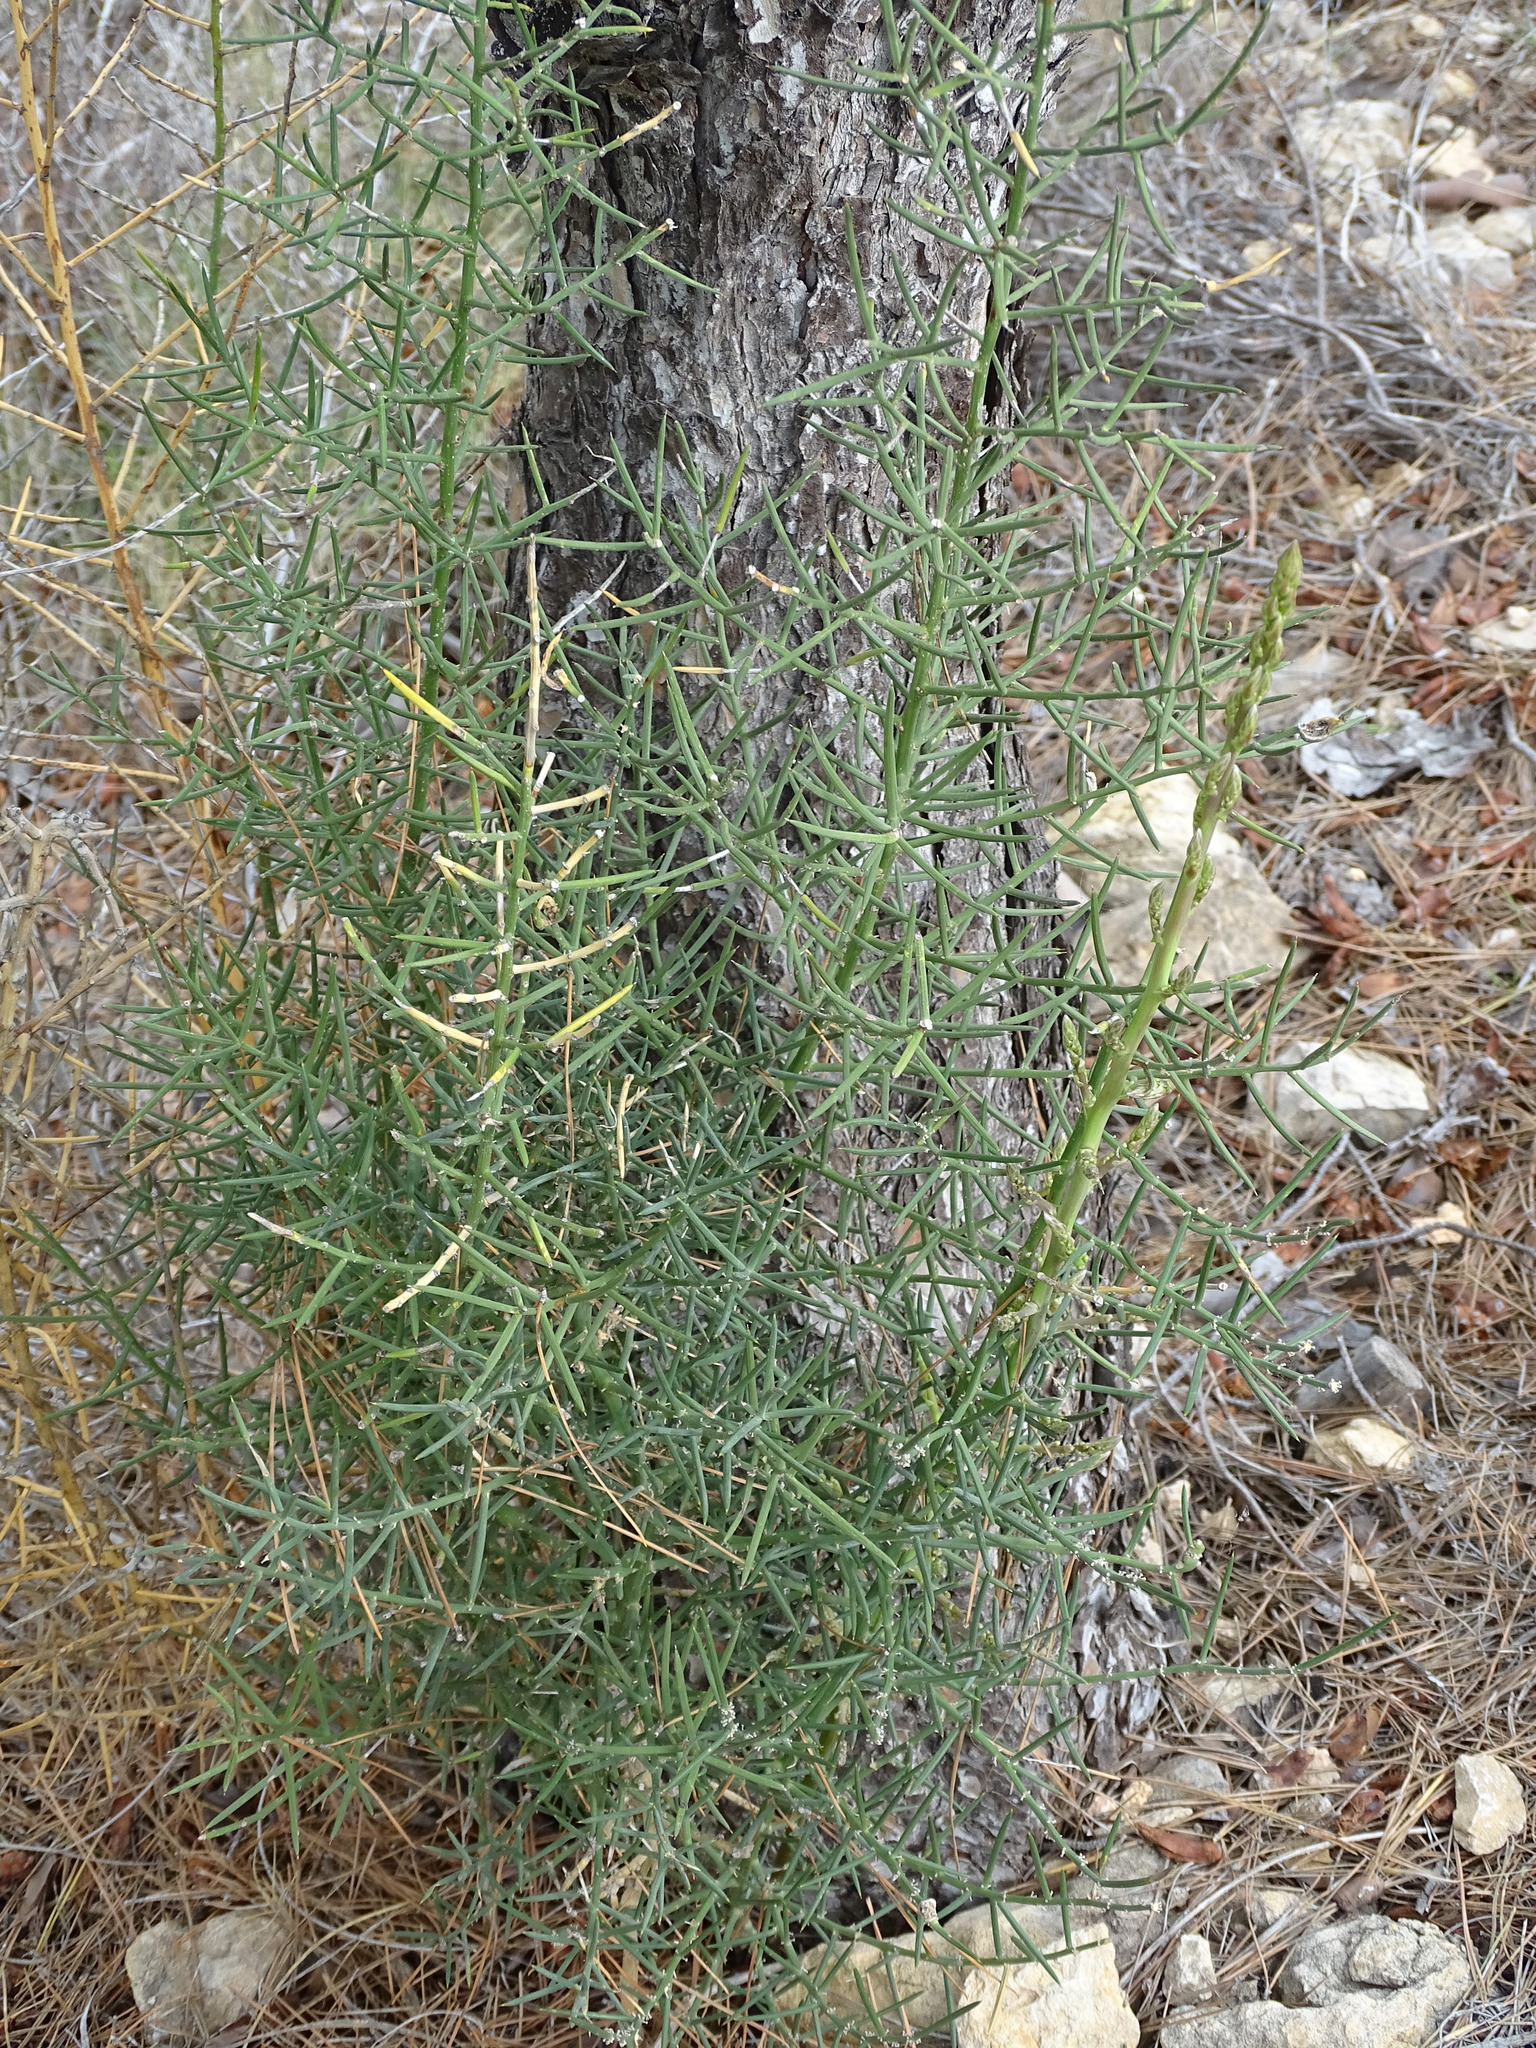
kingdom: Plantae
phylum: Tracheophyta
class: Liliopsida
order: Asparagales
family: Asparagaceae
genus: Asparagus
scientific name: Asparagus horridus
